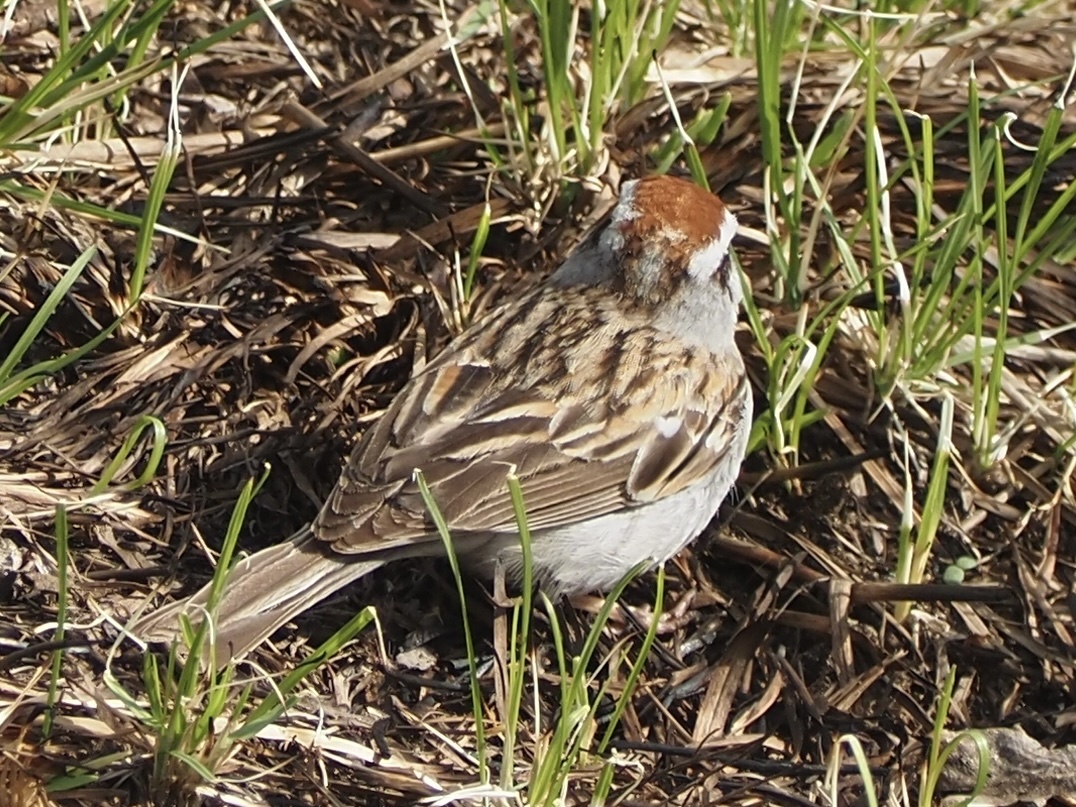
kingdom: Animalia
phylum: Chordata
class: Aves
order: Passeriformes
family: Passerellidae
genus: Spizella
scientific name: Spizella passerina
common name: Chipping sparrow
